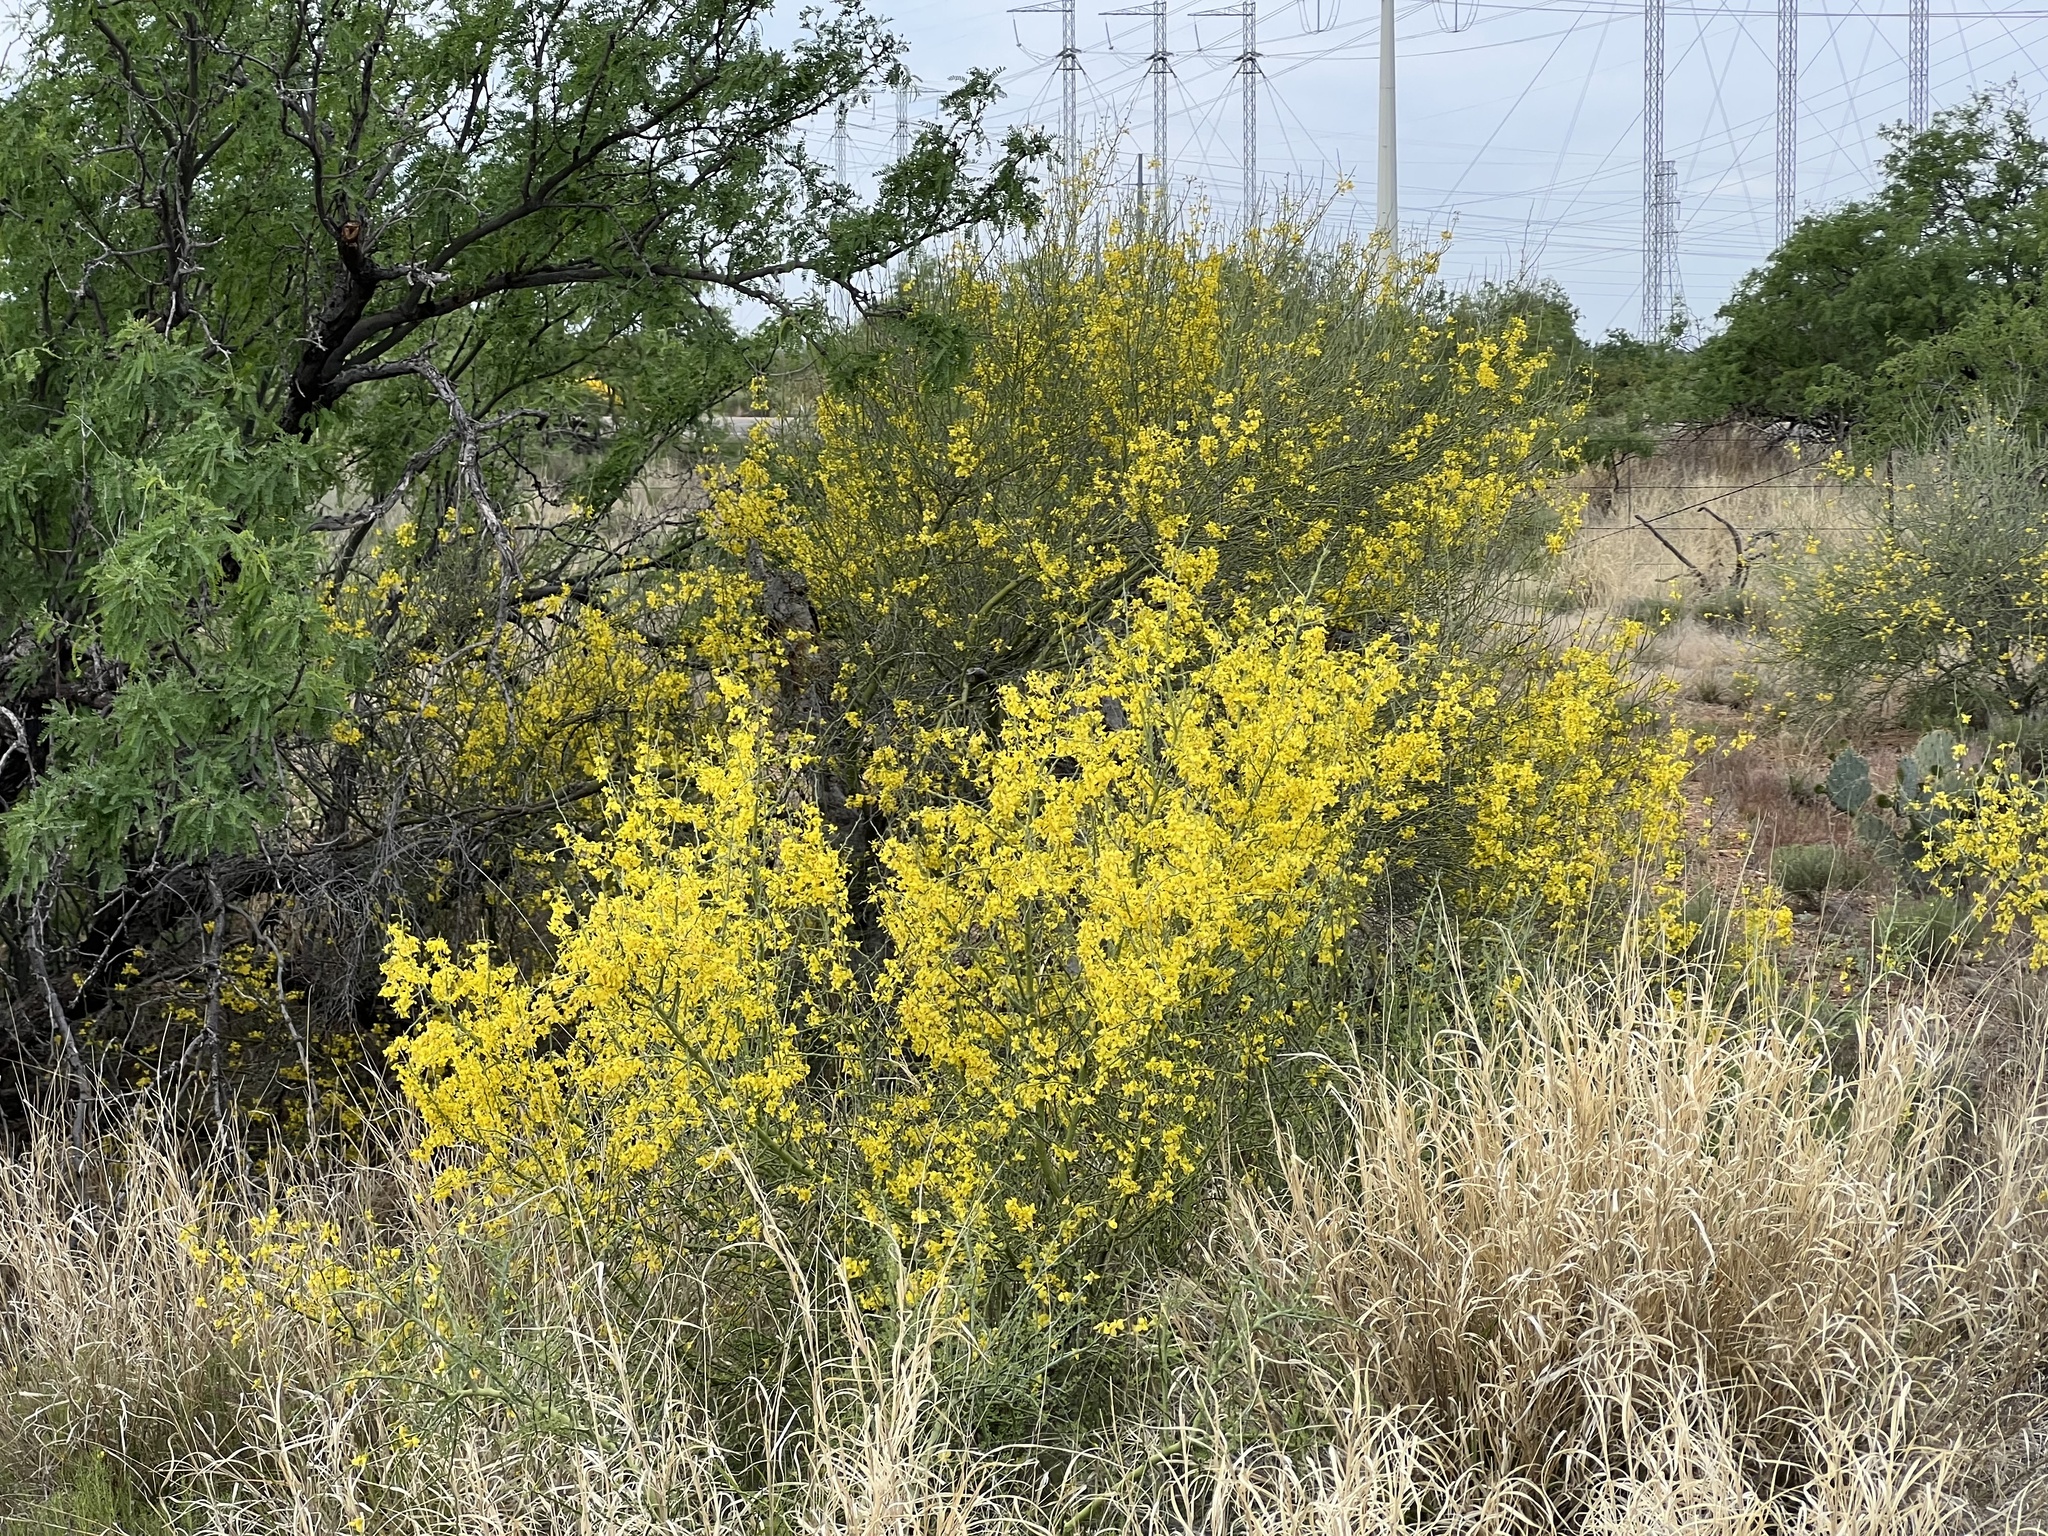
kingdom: Plantae
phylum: Tracheophyta
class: Magnoliopsida
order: Fabales
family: Fabaceae
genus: Parkinsonia
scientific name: Parkinsonia microphylla
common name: Yellow paloverde
